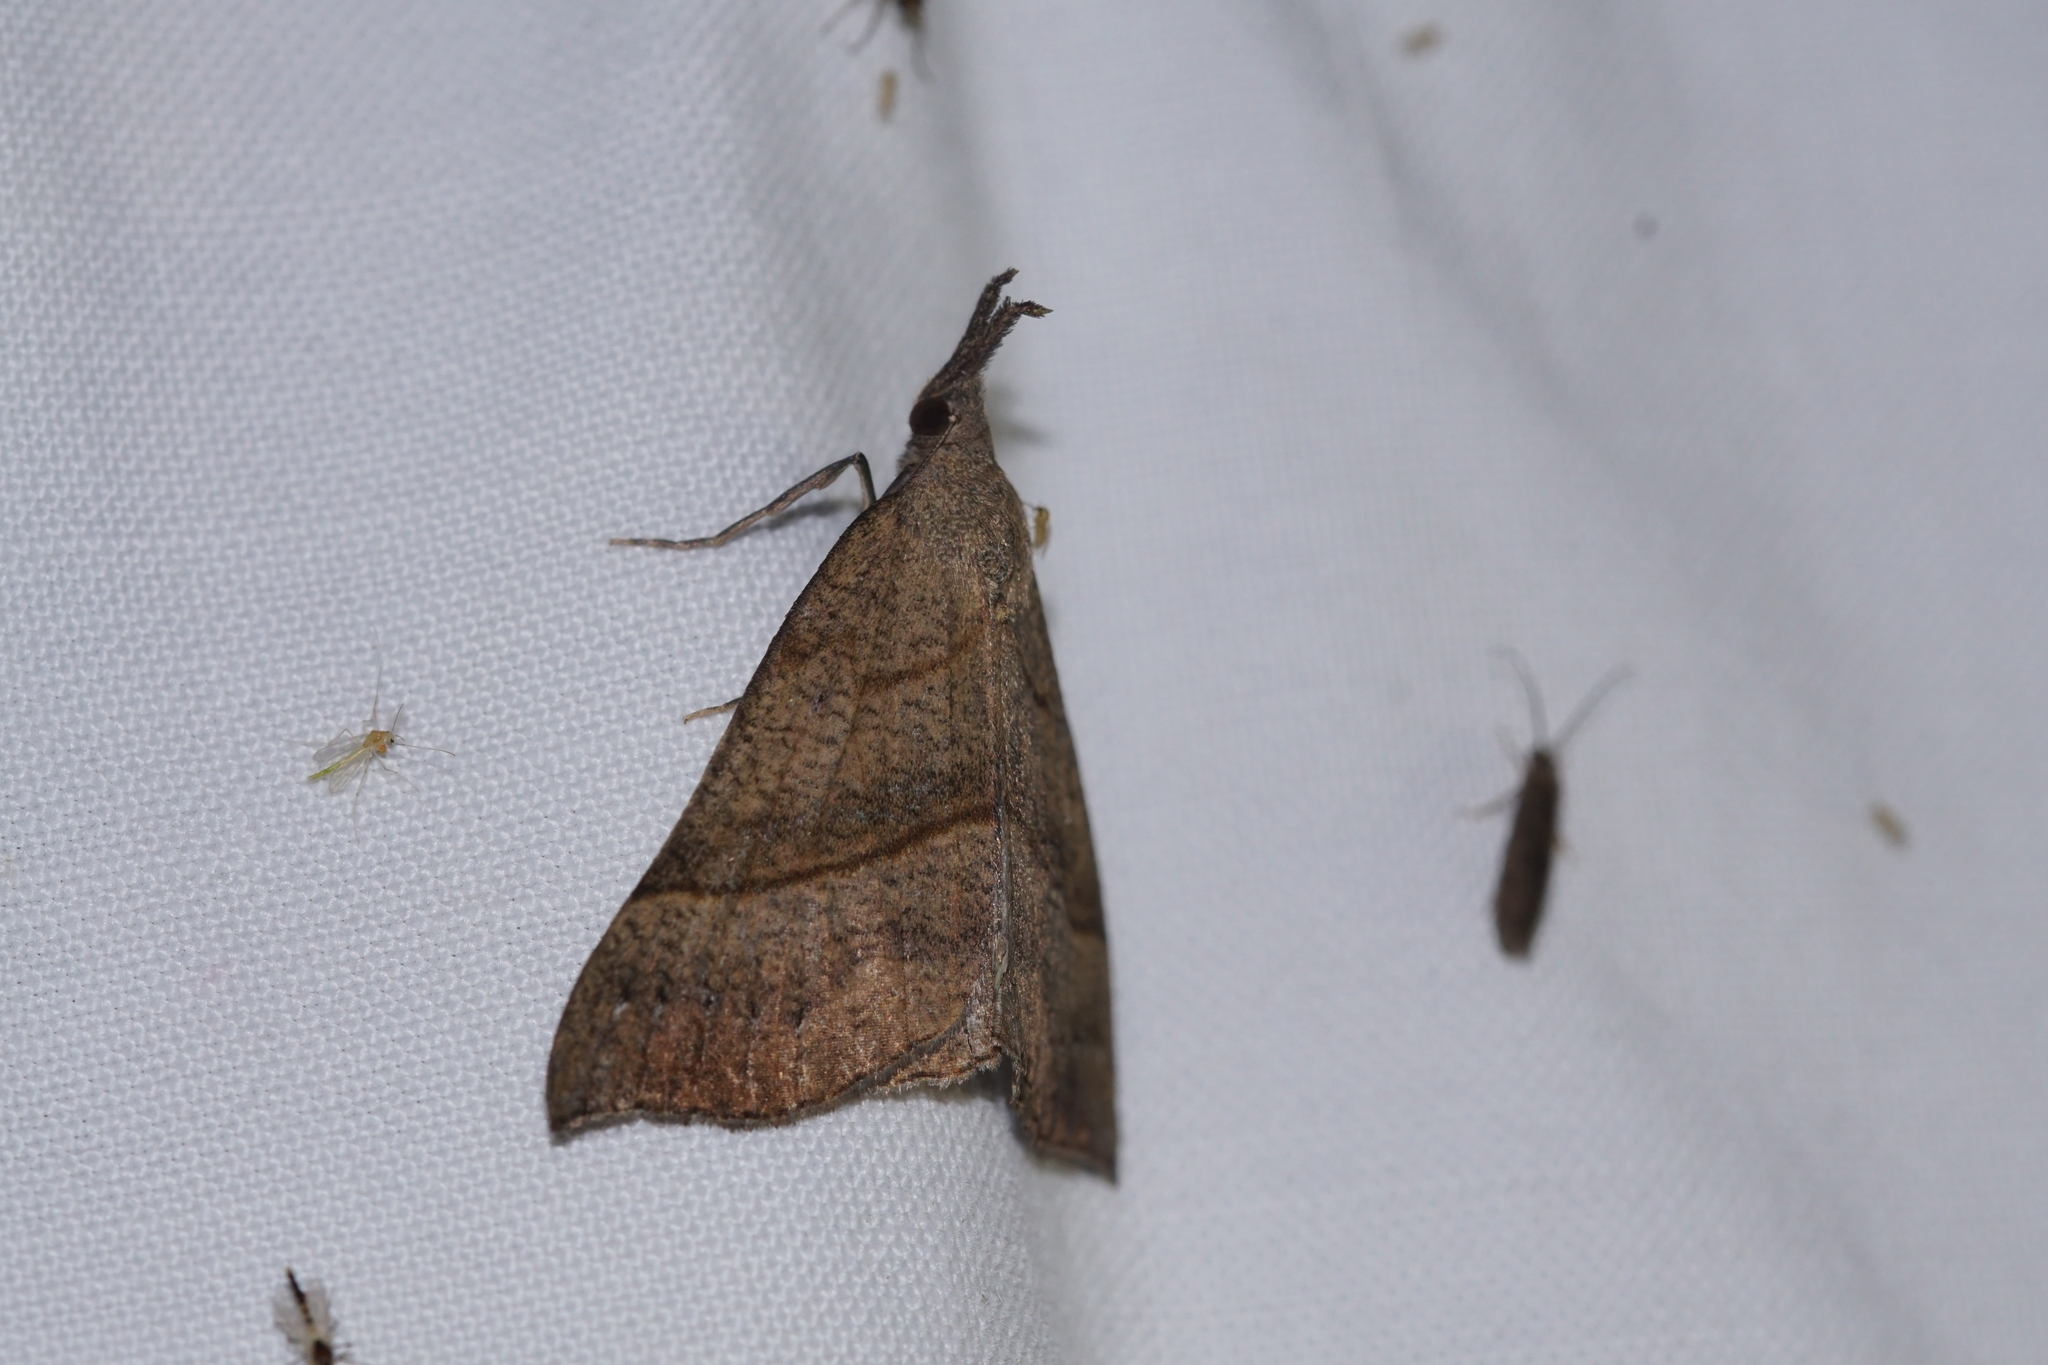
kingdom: Animalia
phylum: Arthropoda
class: Insecta
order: Lepidoptera
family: Erebidae
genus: Hypena
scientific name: Hypena proboscidalis
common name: Snout
